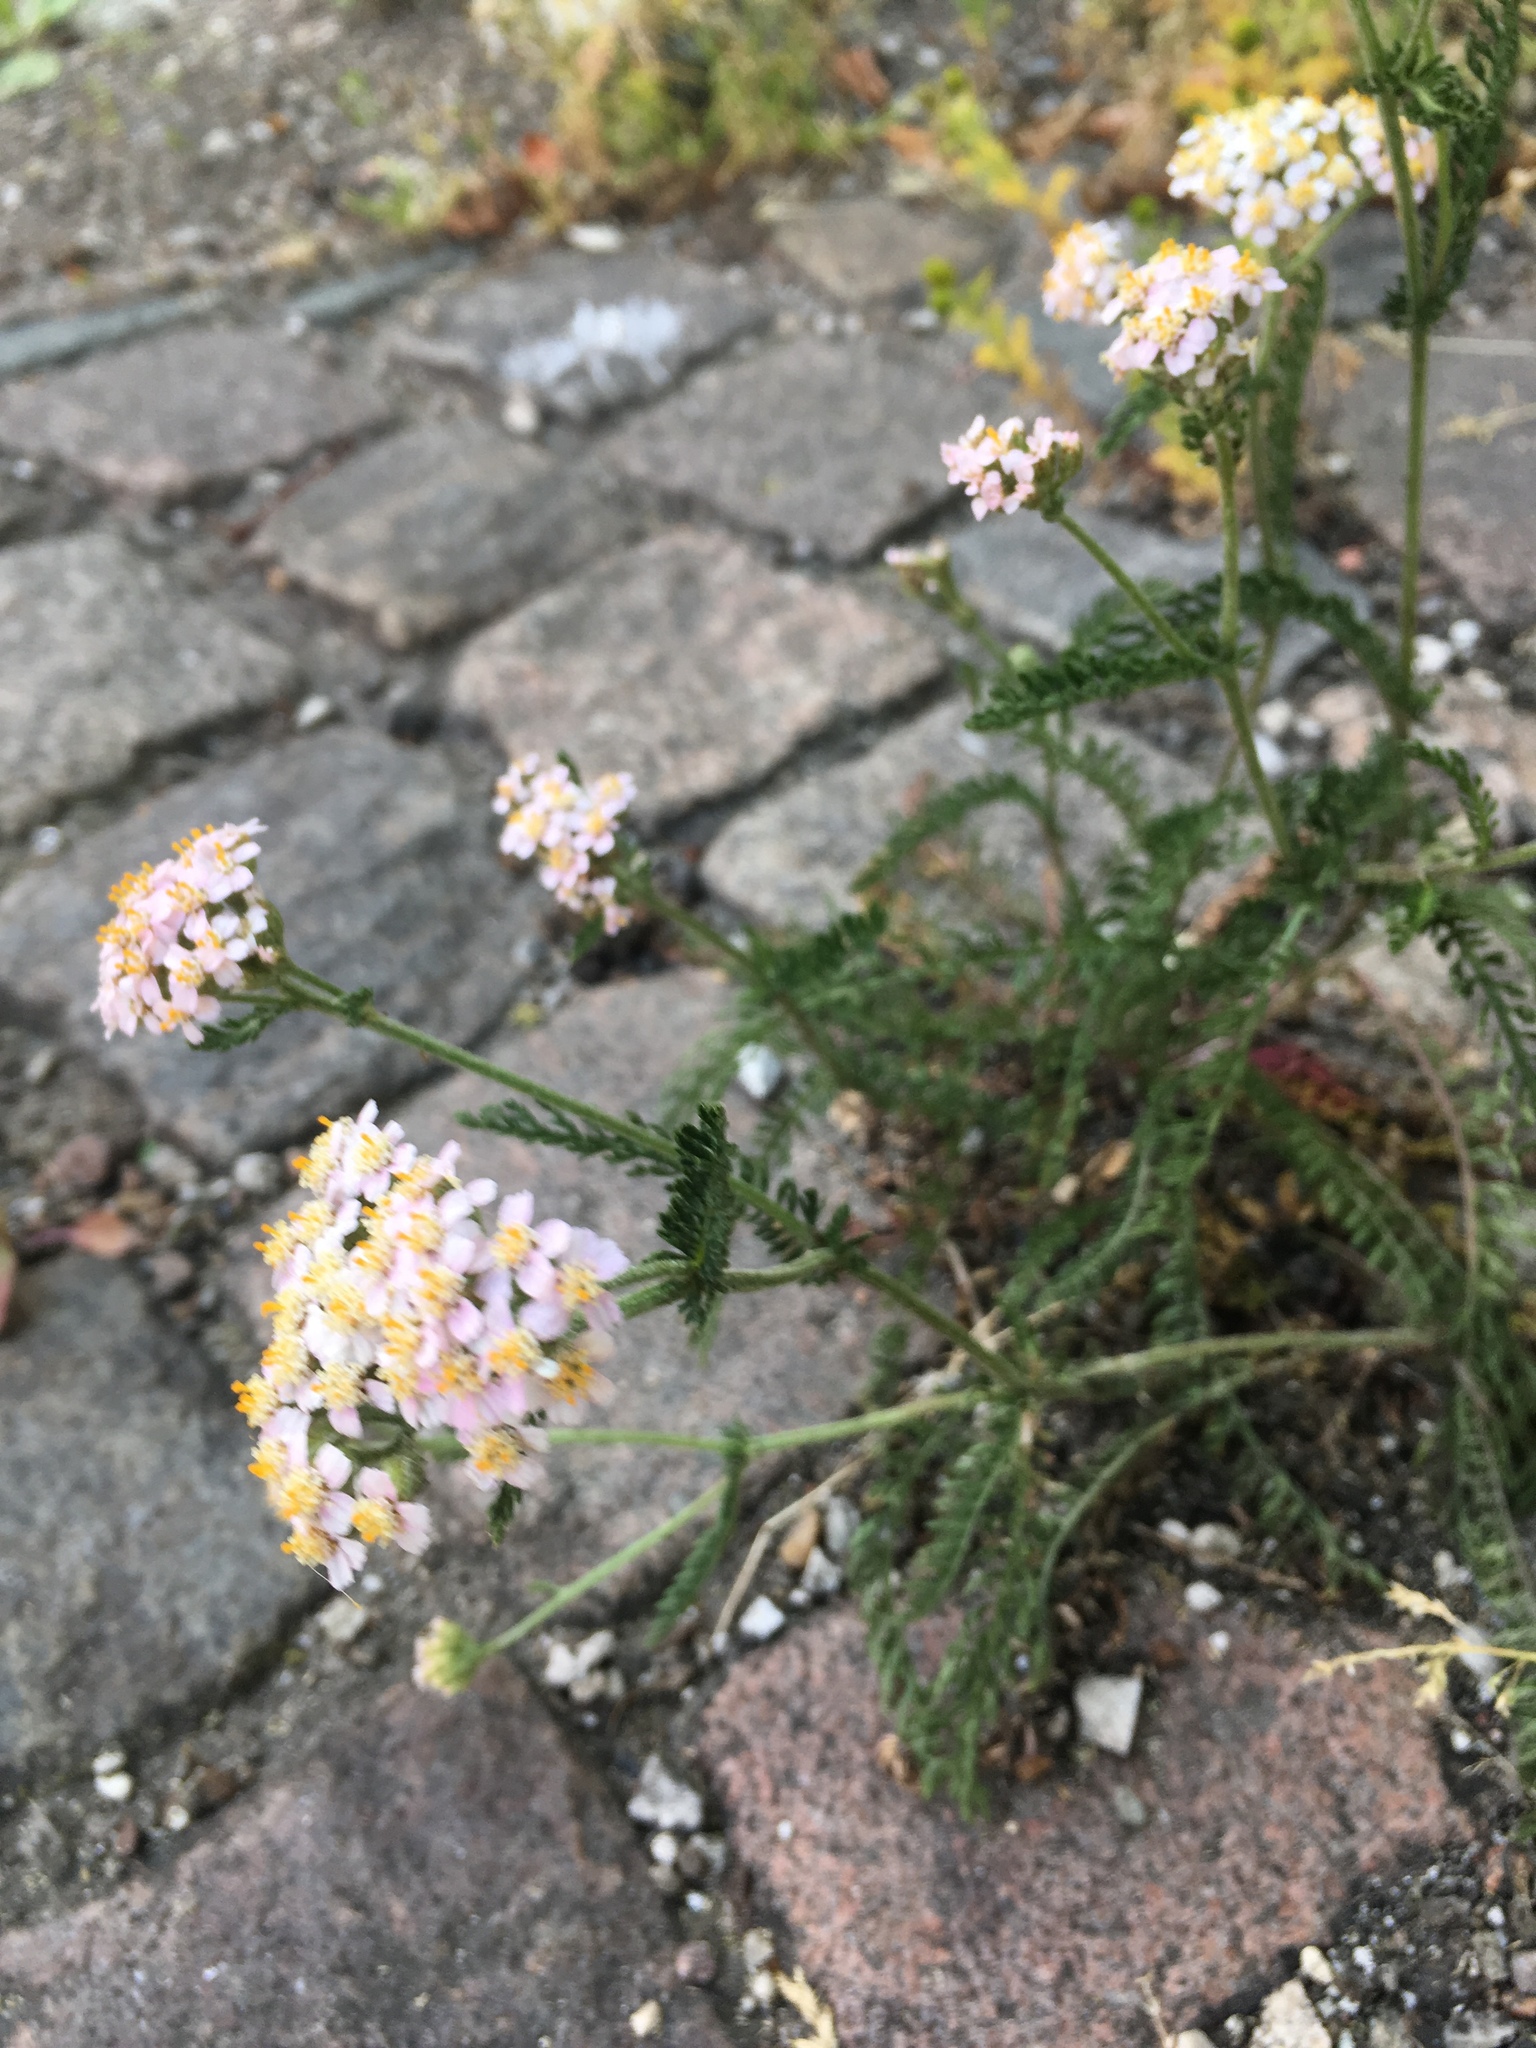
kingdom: Plantae
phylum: Tracheophyta
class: Magnoliopsida
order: Asterales
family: Asteraceae
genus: Achillea
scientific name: Achillea millefolium
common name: Yarrow
